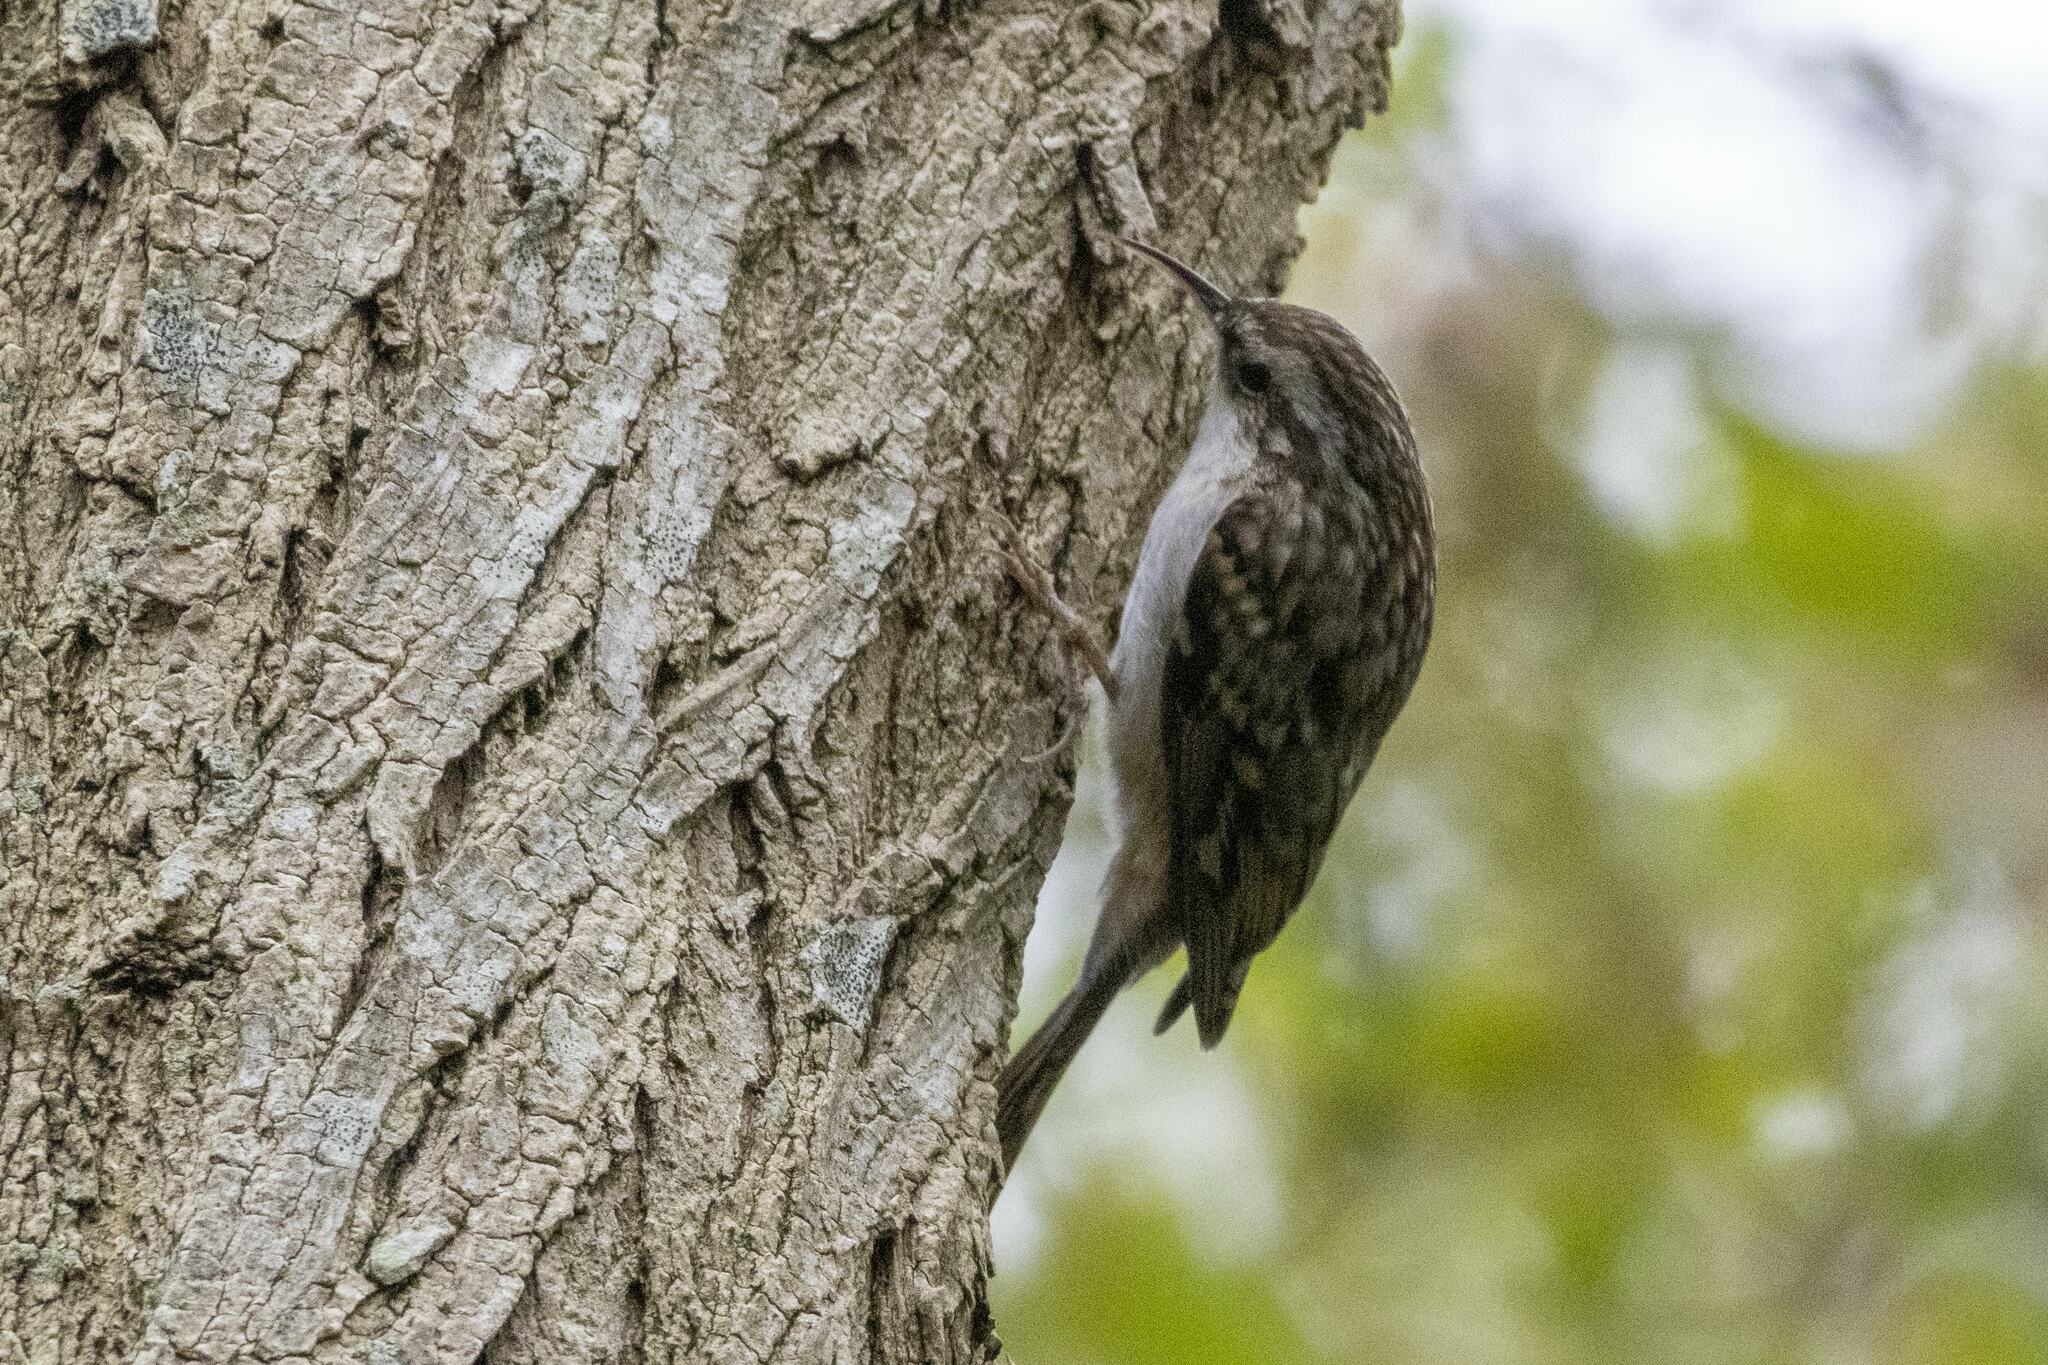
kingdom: Animalia
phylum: Chordata
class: Aves
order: Passeriformes
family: Certhiidae
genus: Certhia
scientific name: Certhia brachydactyla
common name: Short-toed treecreeper
